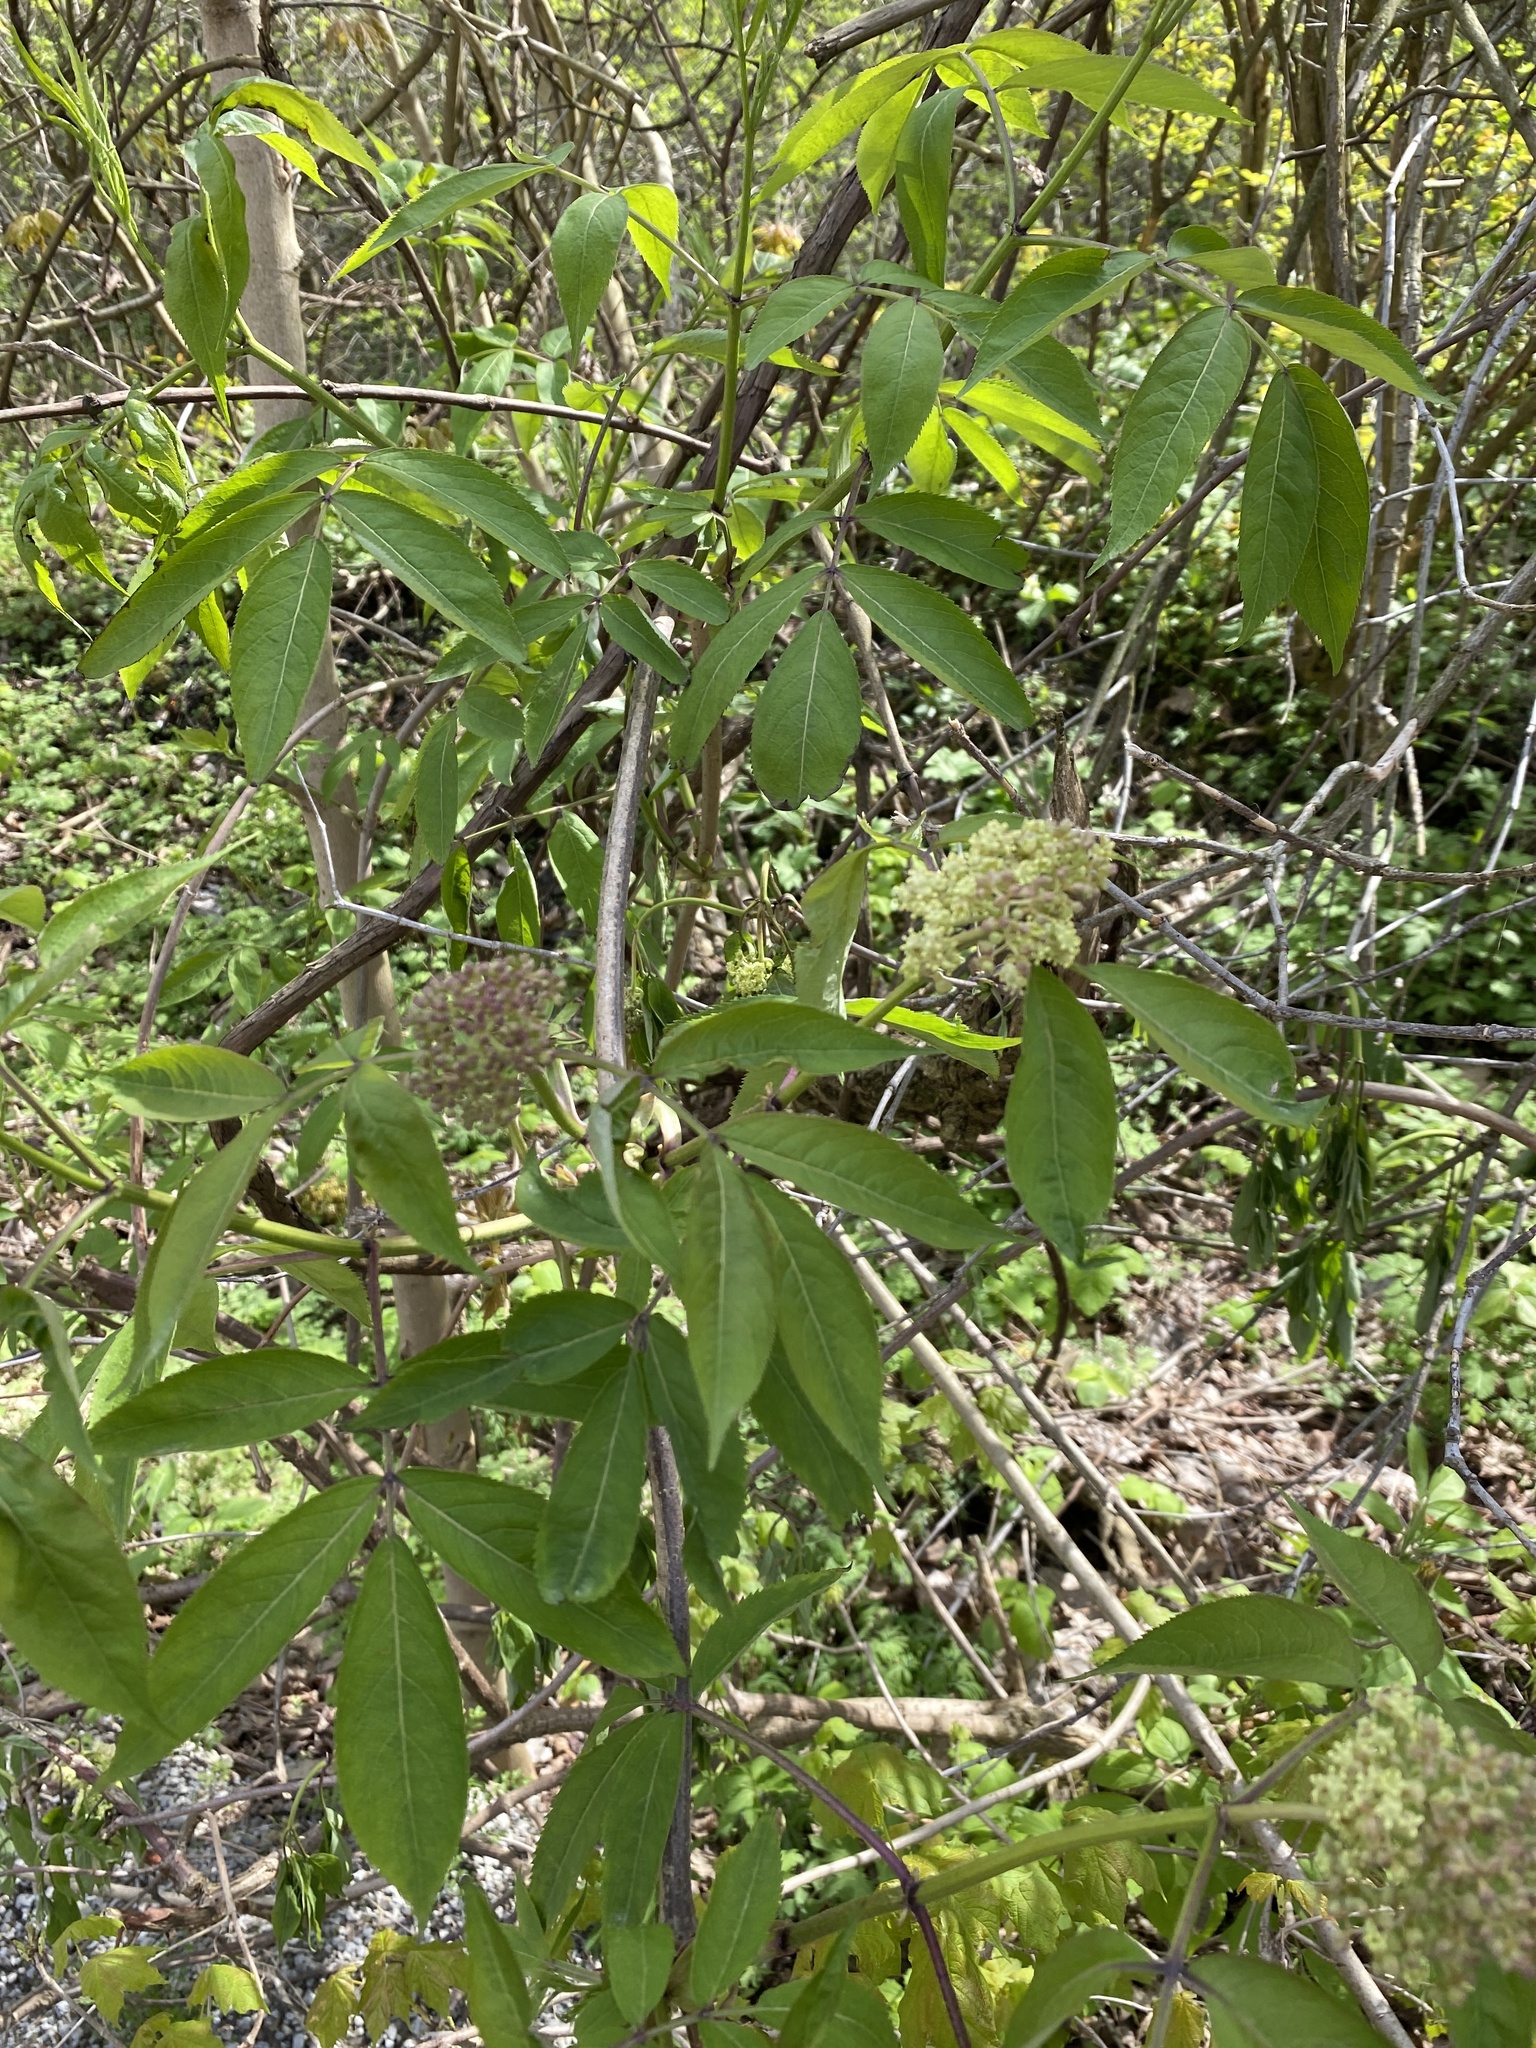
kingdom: Plantae
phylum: Tracheophyta
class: Magnoliopsida
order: Dipsacales
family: Viburnaceae
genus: Sambucus
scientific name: Sambucus racemosa
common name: Red-berried elder
